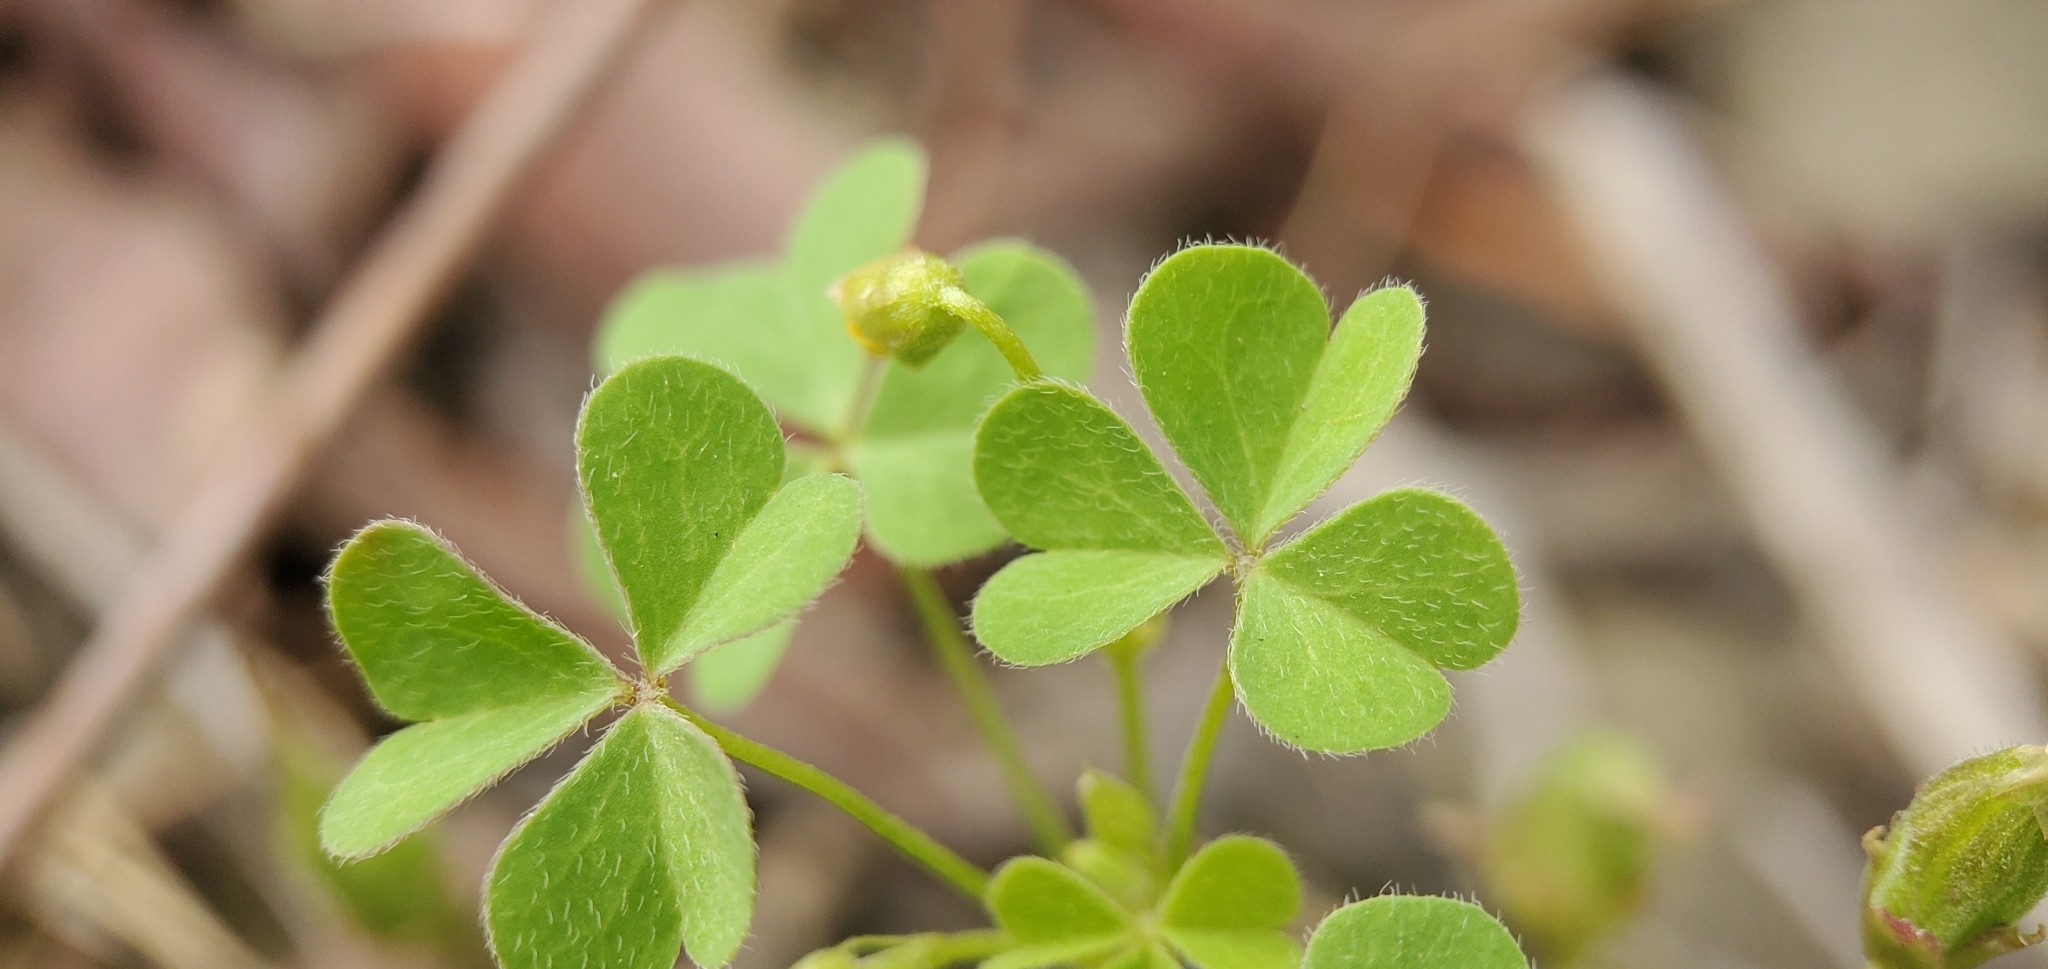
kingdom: Plantae
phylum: Tracheophyta
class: Magnoliopsida
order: Oxalidales
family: Oxalidaceae
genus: Oxalis
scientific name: Oxalis californica
